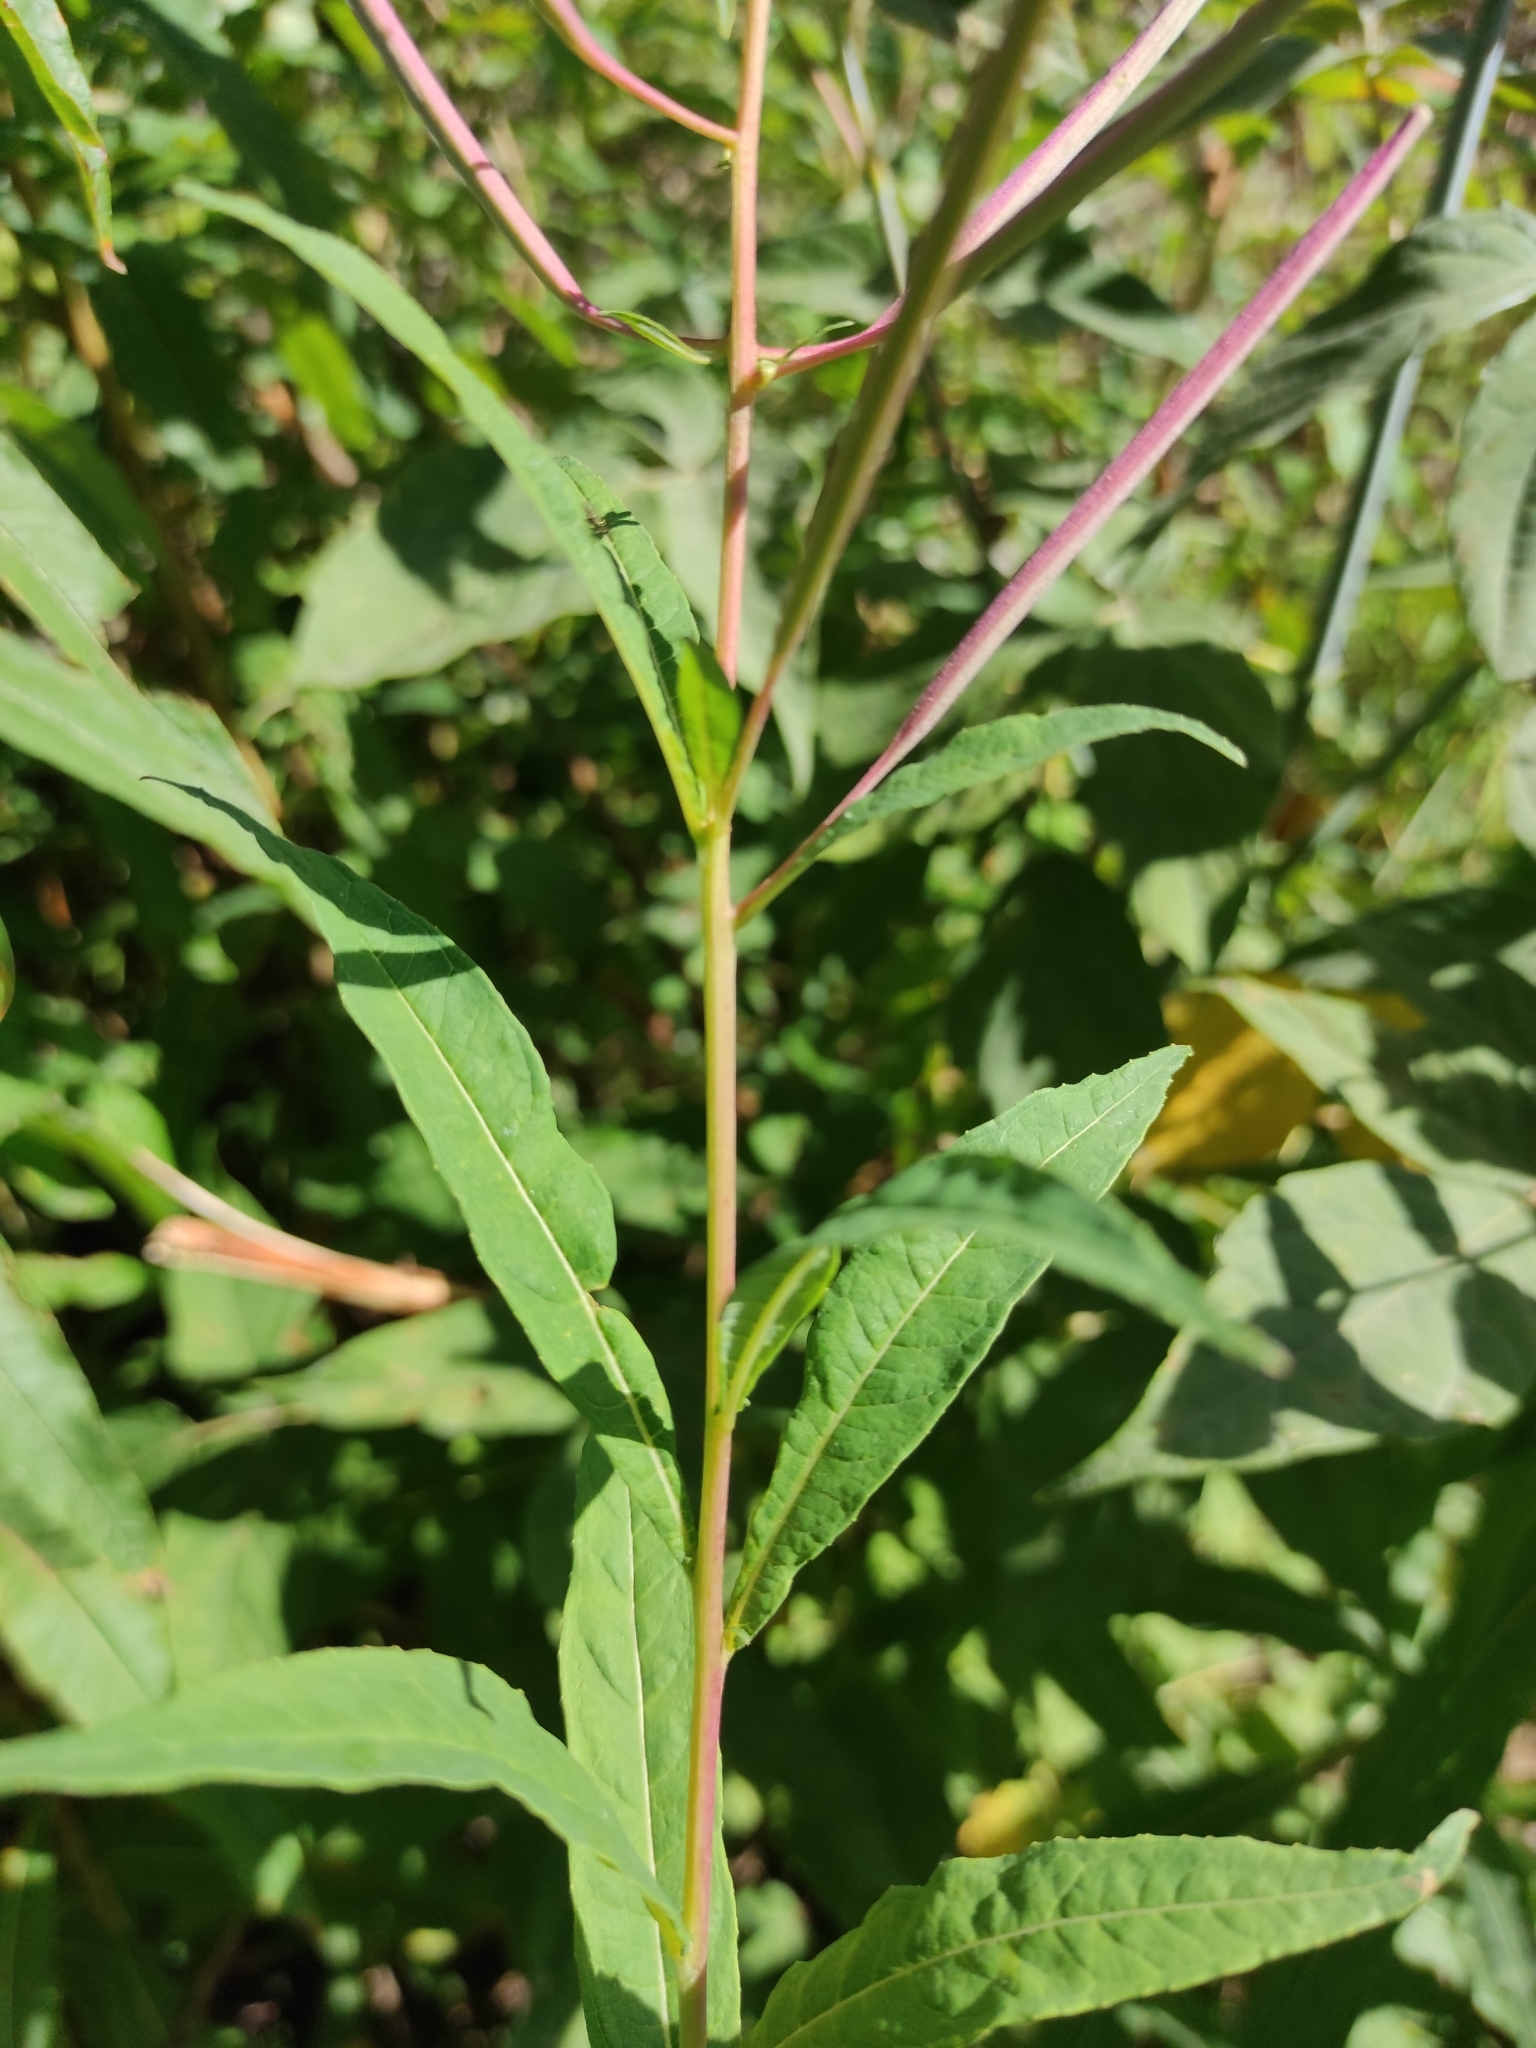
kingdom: Plantae
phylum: Tracheophyta
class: Magnoliopsida
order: Myrtales
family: Onagraceae
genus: Chamaenerion
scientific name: Chamaenerion angustifolium
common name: Fireweed
